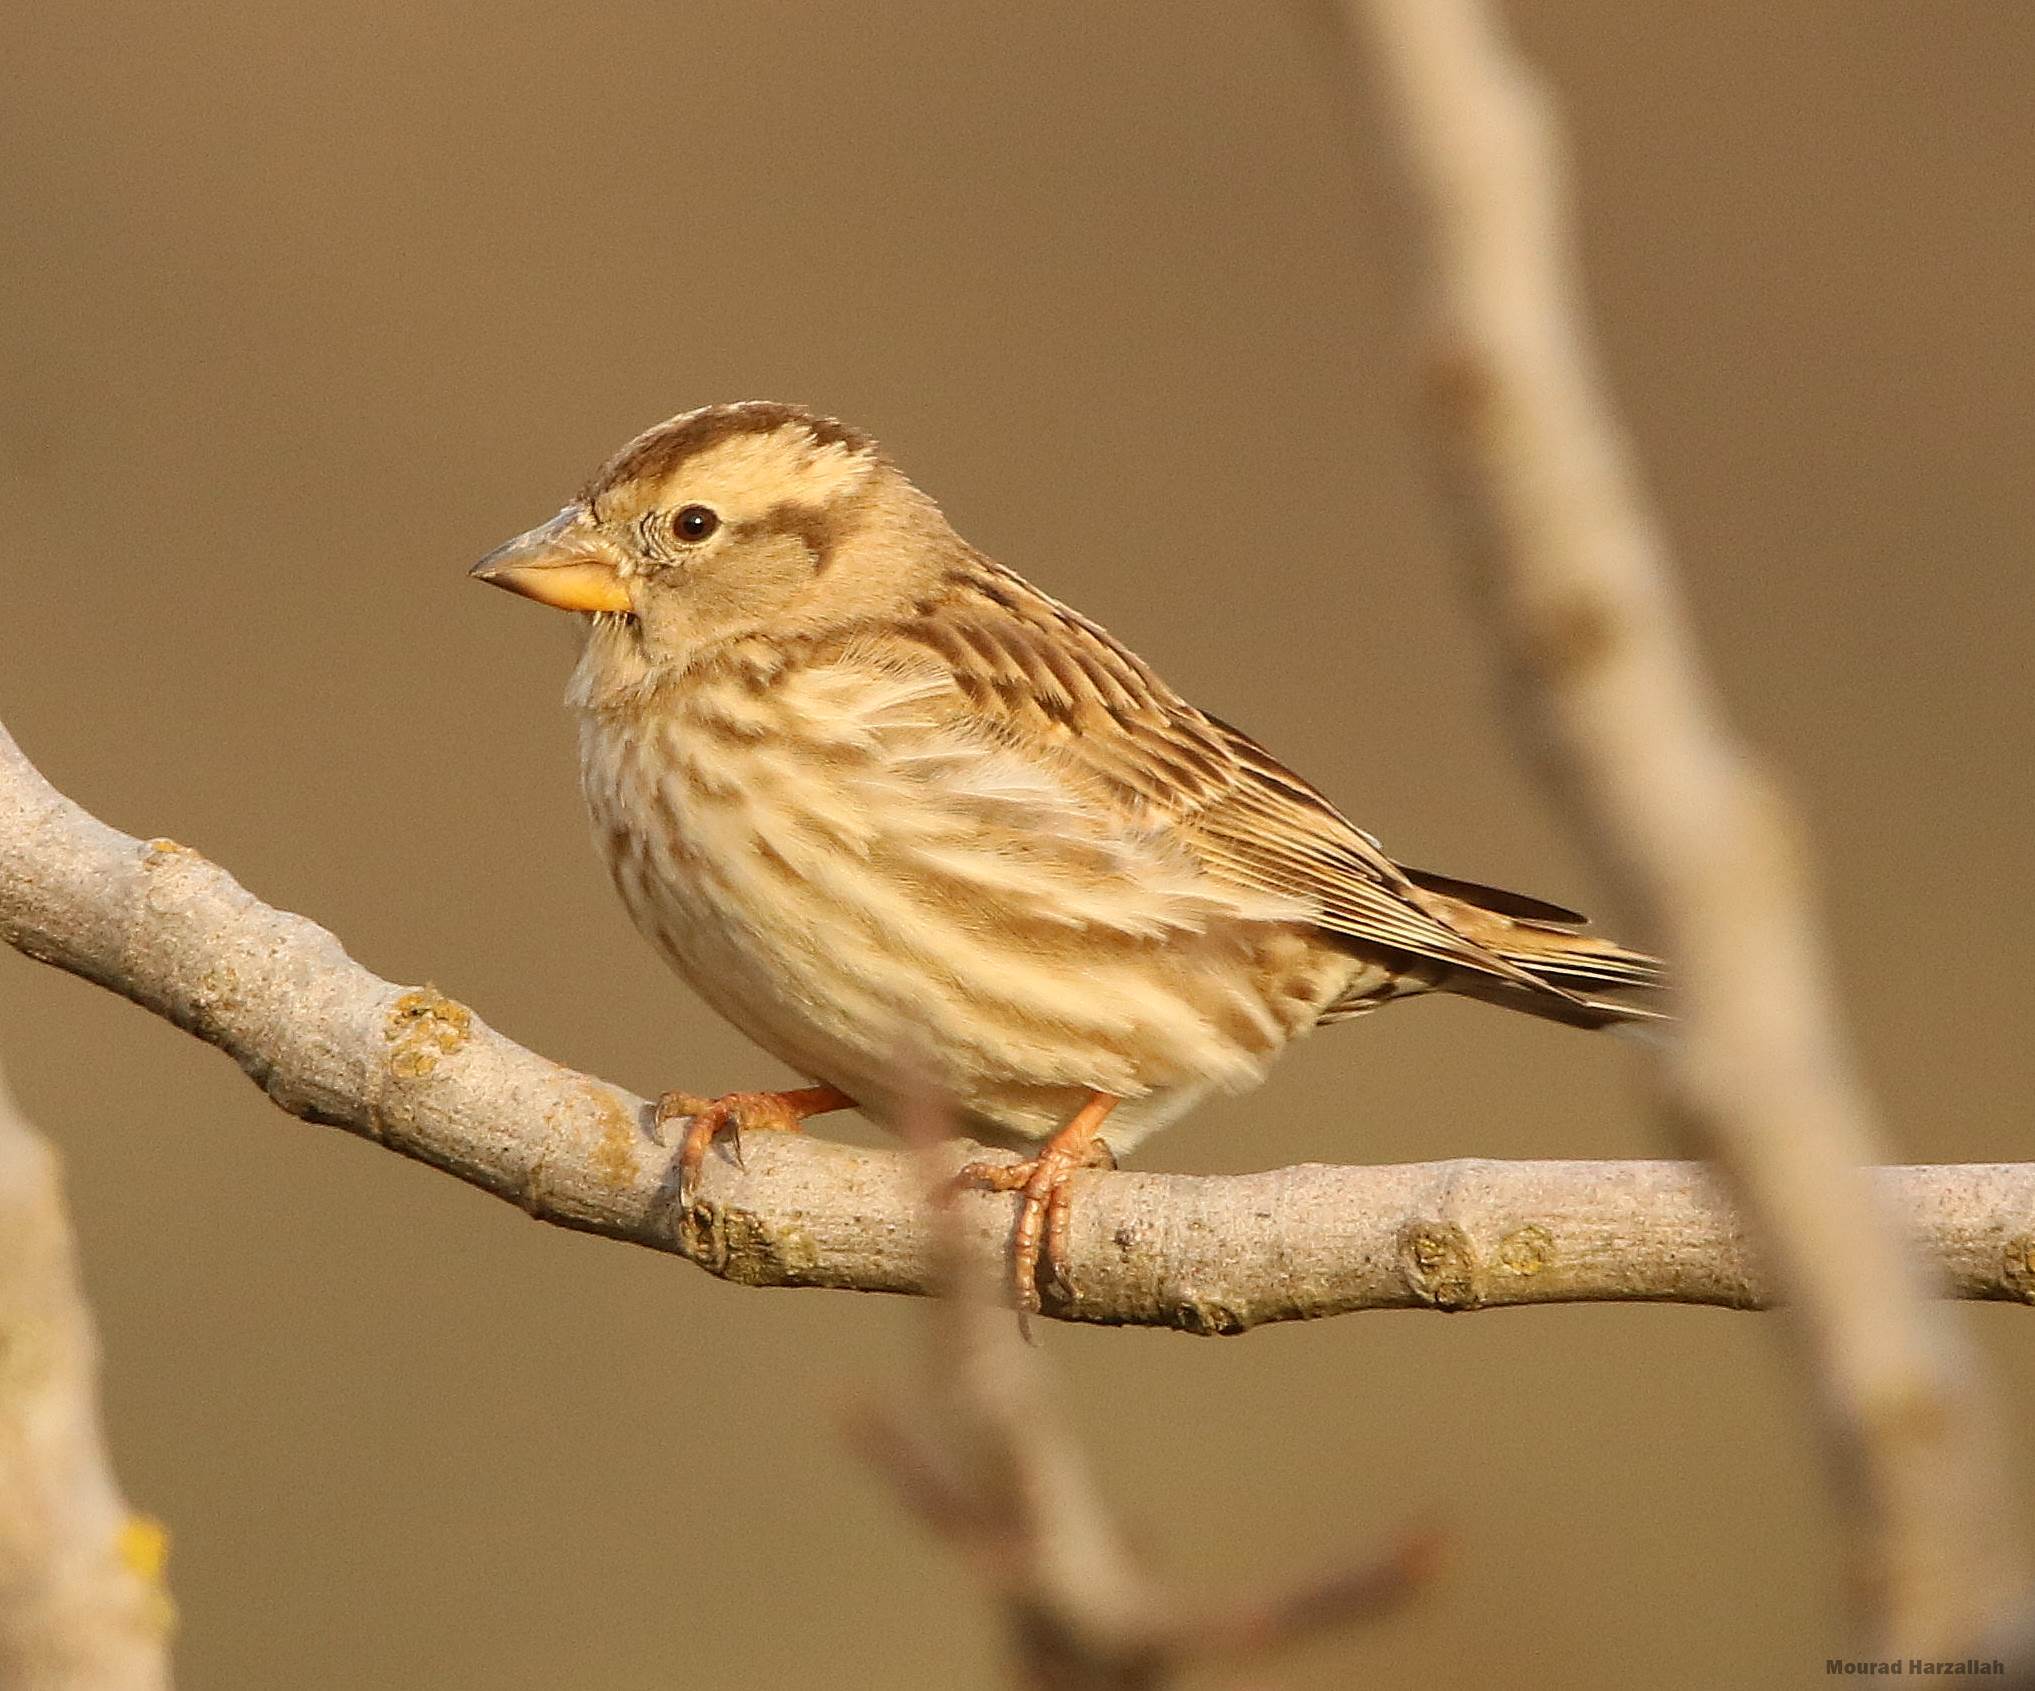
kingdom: Animalia
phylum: Chordata
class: Aves
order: Passeriformes
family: Passeridae
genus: Petronia
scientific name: Petronia petronia
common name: Rock sparrow
